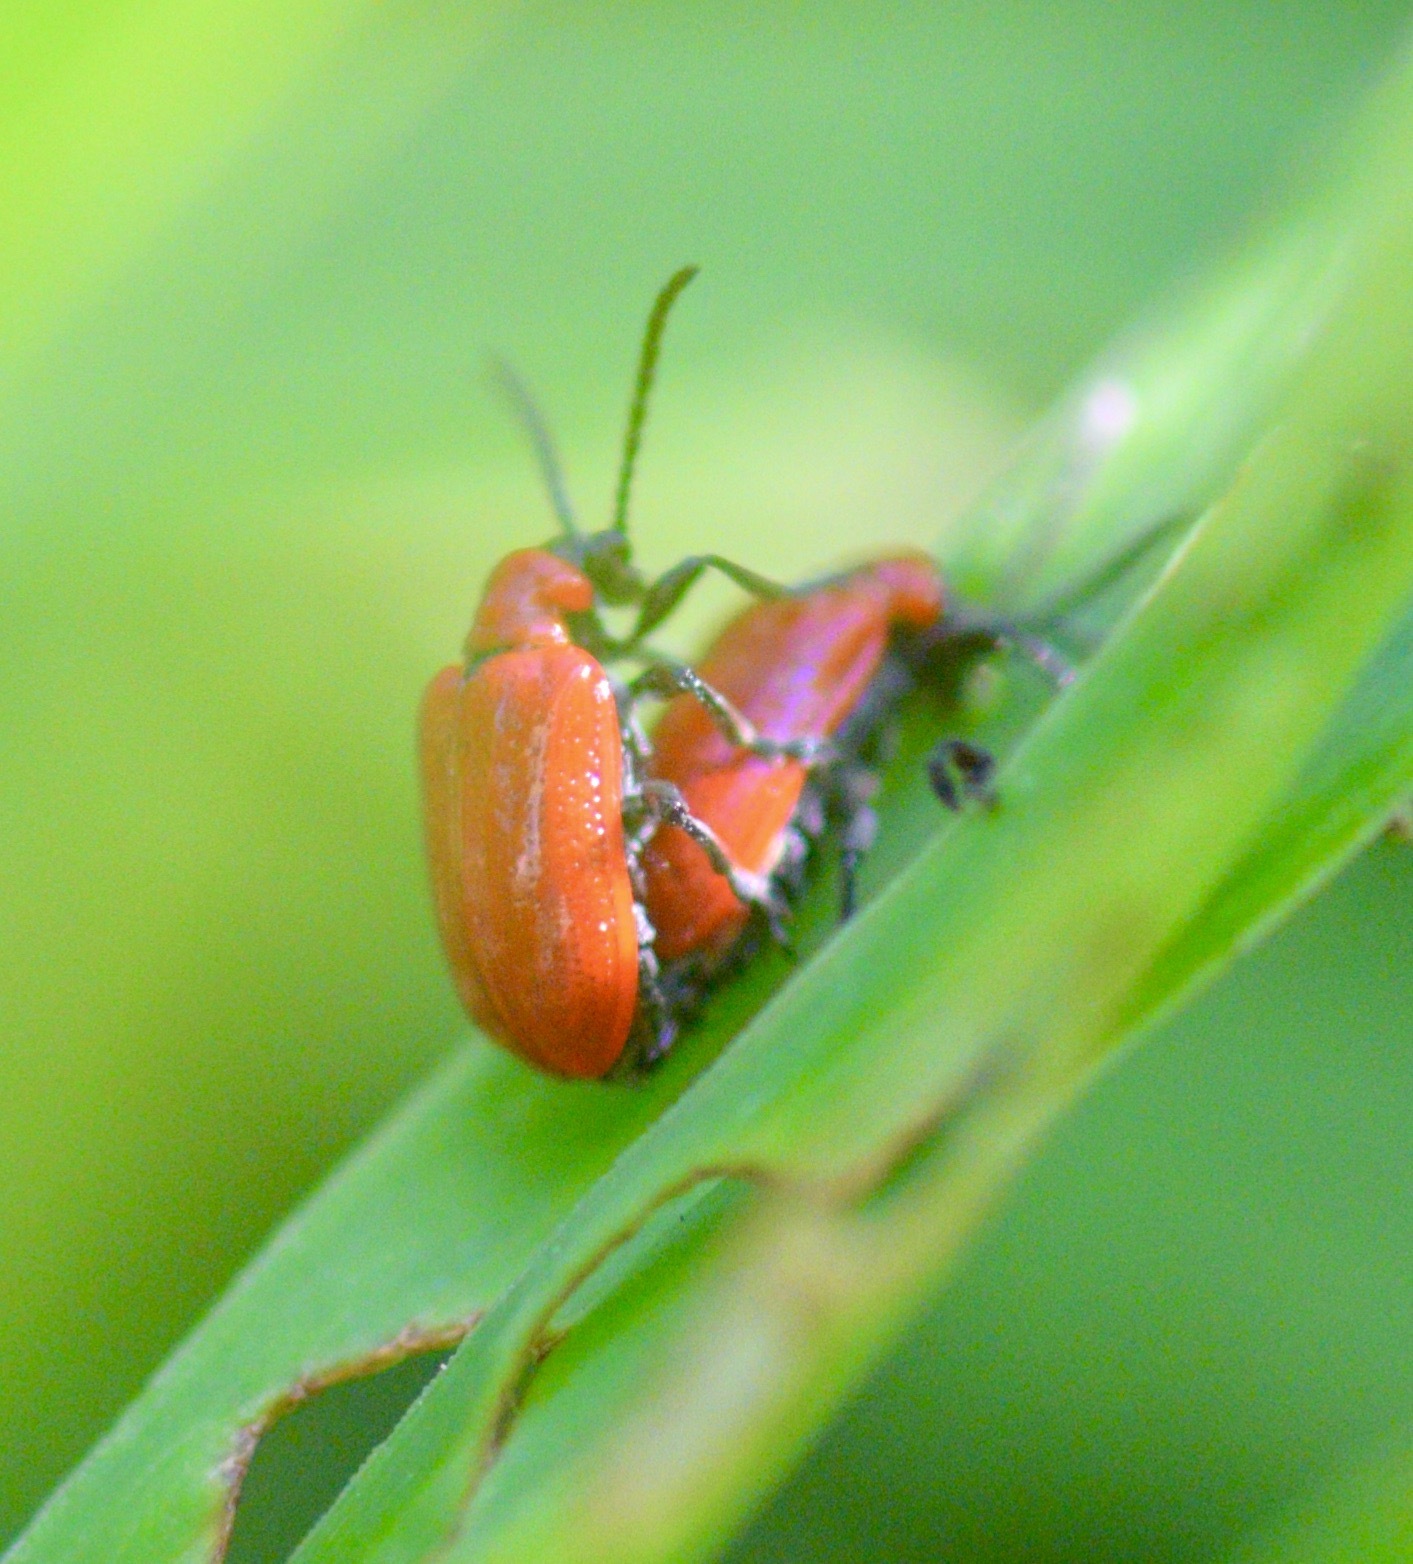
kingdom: Animalia
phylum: Arthropoda
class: Insecta
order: Coleoptera
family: Chrysomelidae
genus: Lilioceris
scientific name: Lilioceris lilii
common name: Lily beetle
